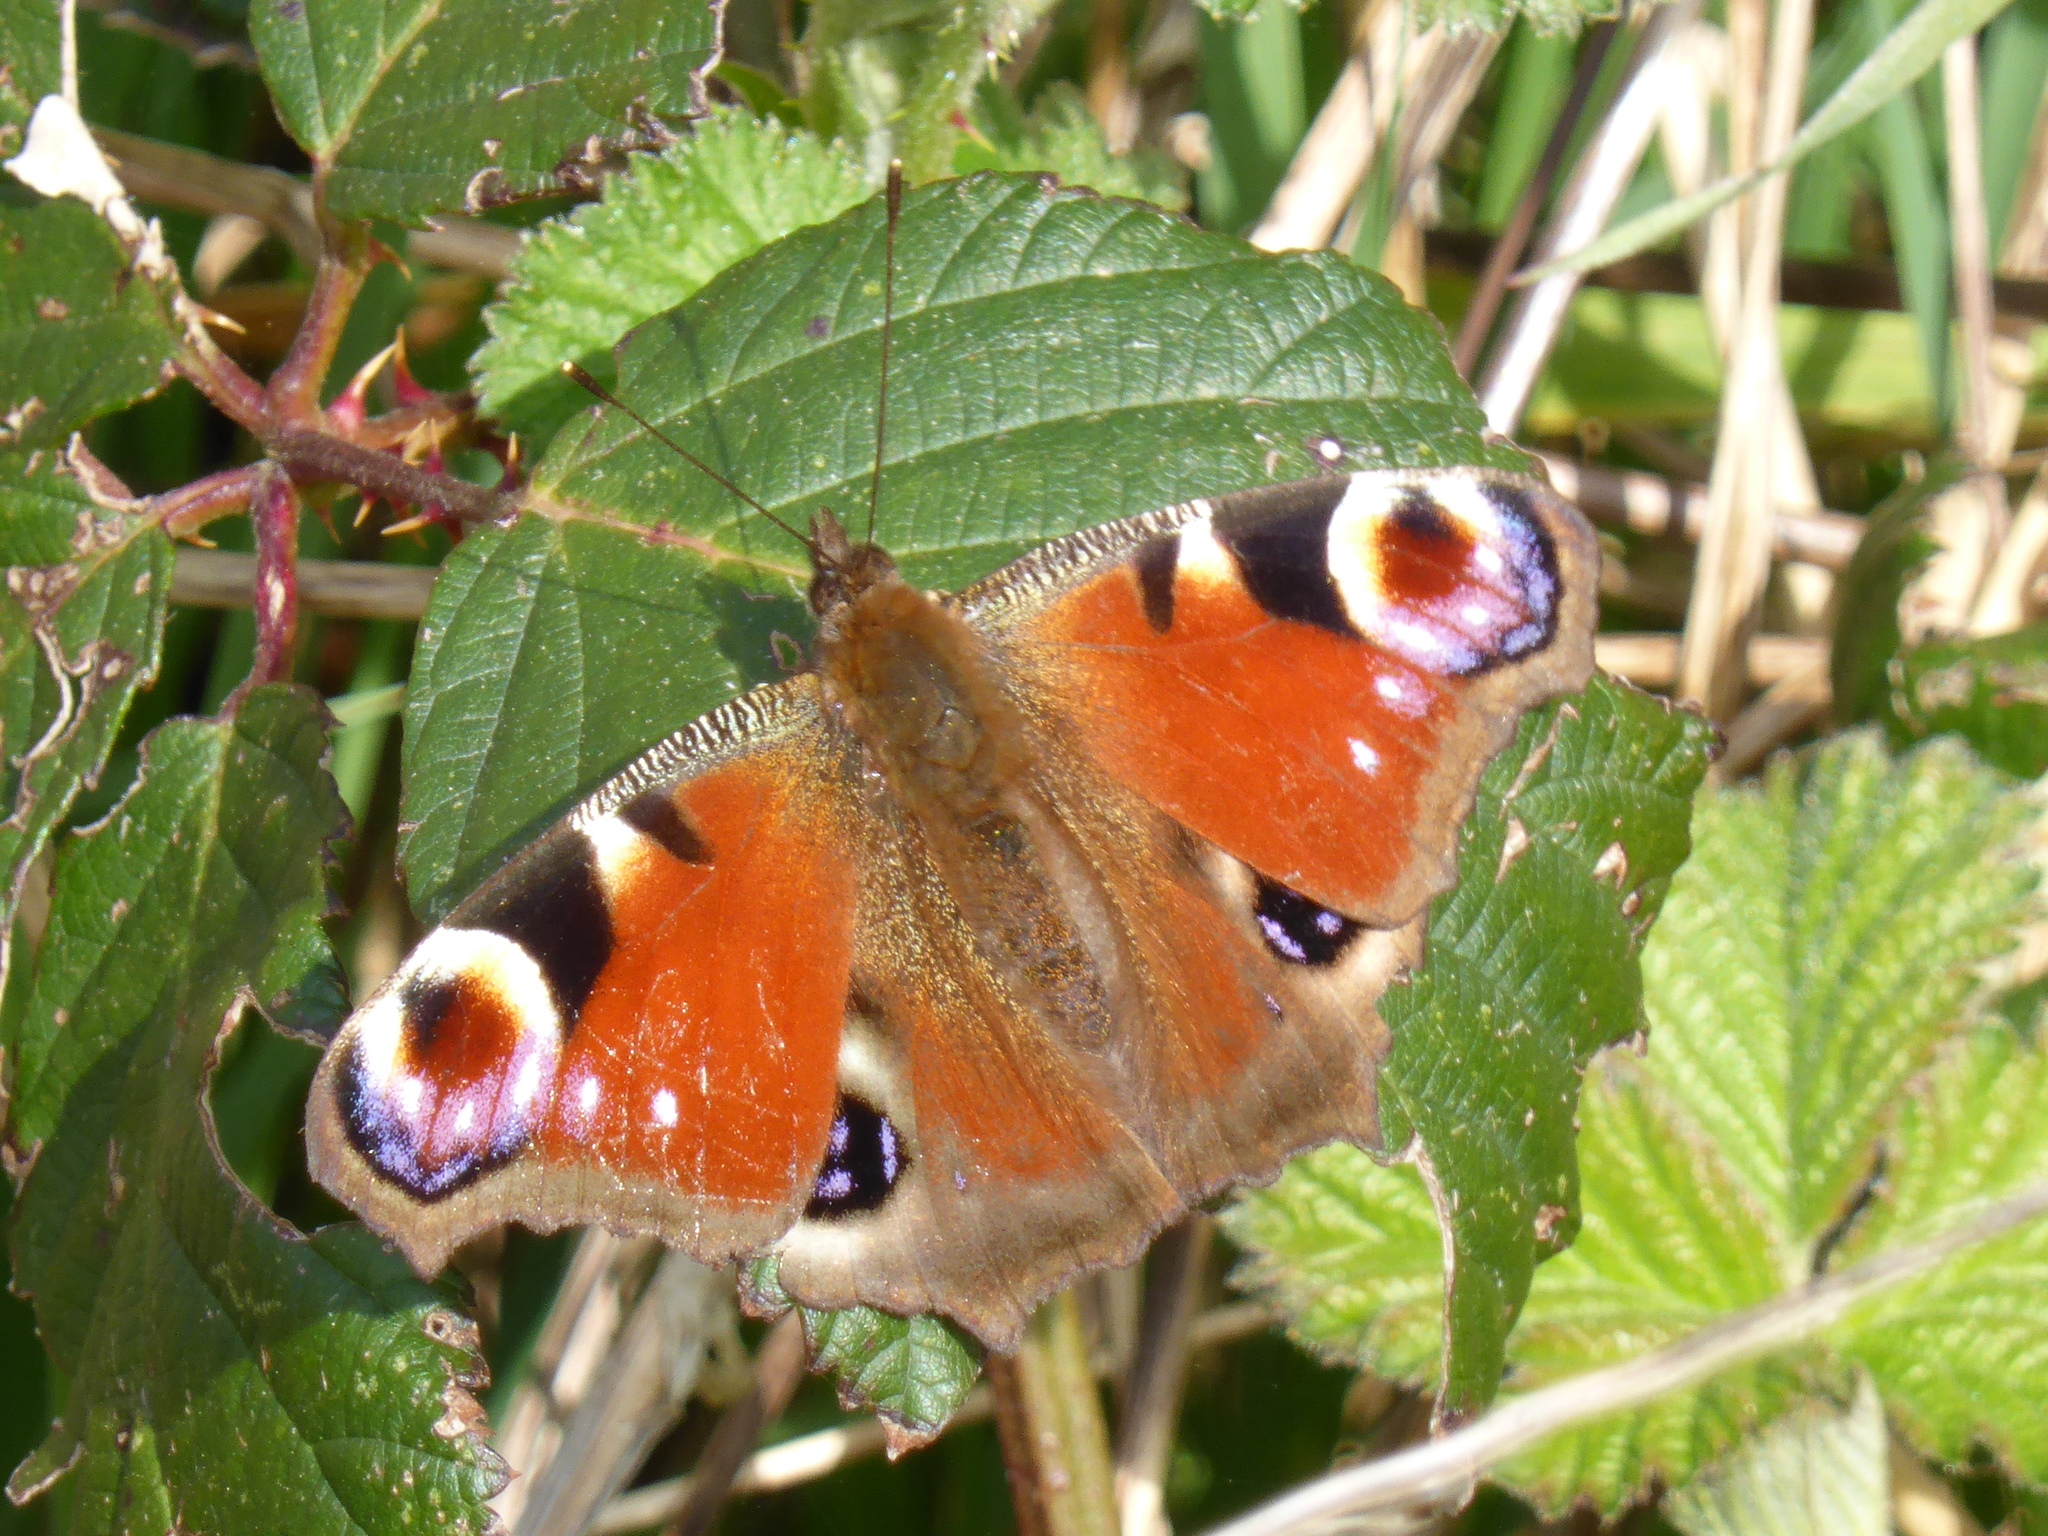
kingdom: Animalia
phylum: Arthropoda
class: Insecta
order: Lepidoptera
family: Nymphalidae
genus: Aglais
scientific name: Aglais io
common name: Peacock
